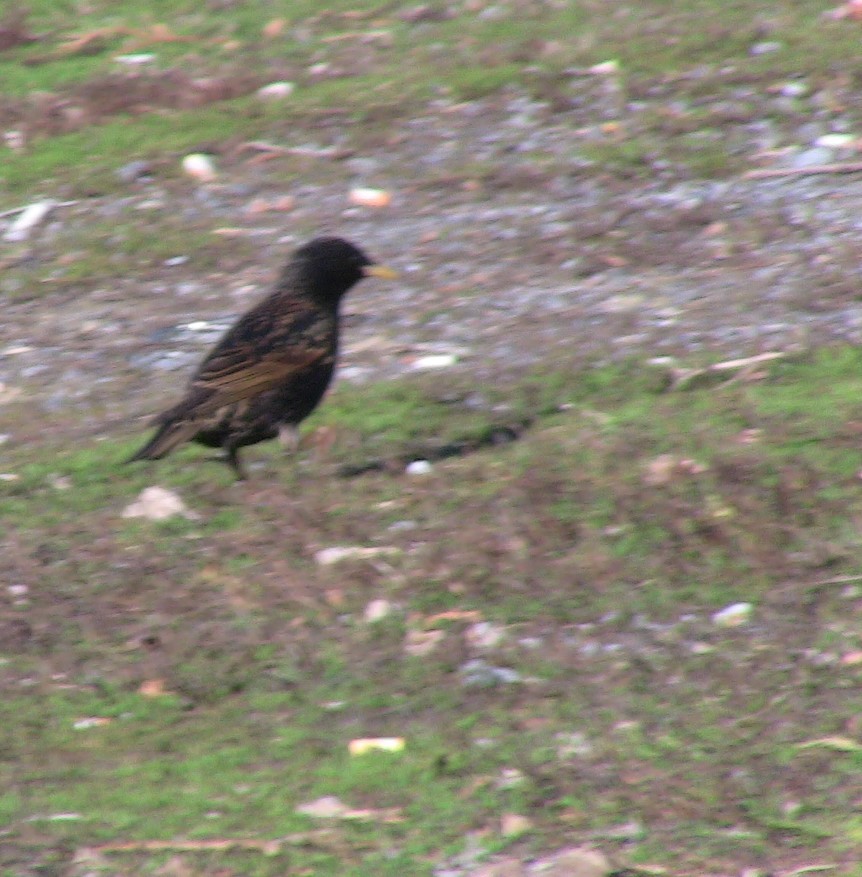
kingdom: Animalia
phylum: Chordata
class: Aves
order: Passeriformes
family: Sturnidae
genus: Sturnus
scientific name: Sturnus vulgaris
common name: Common starling
